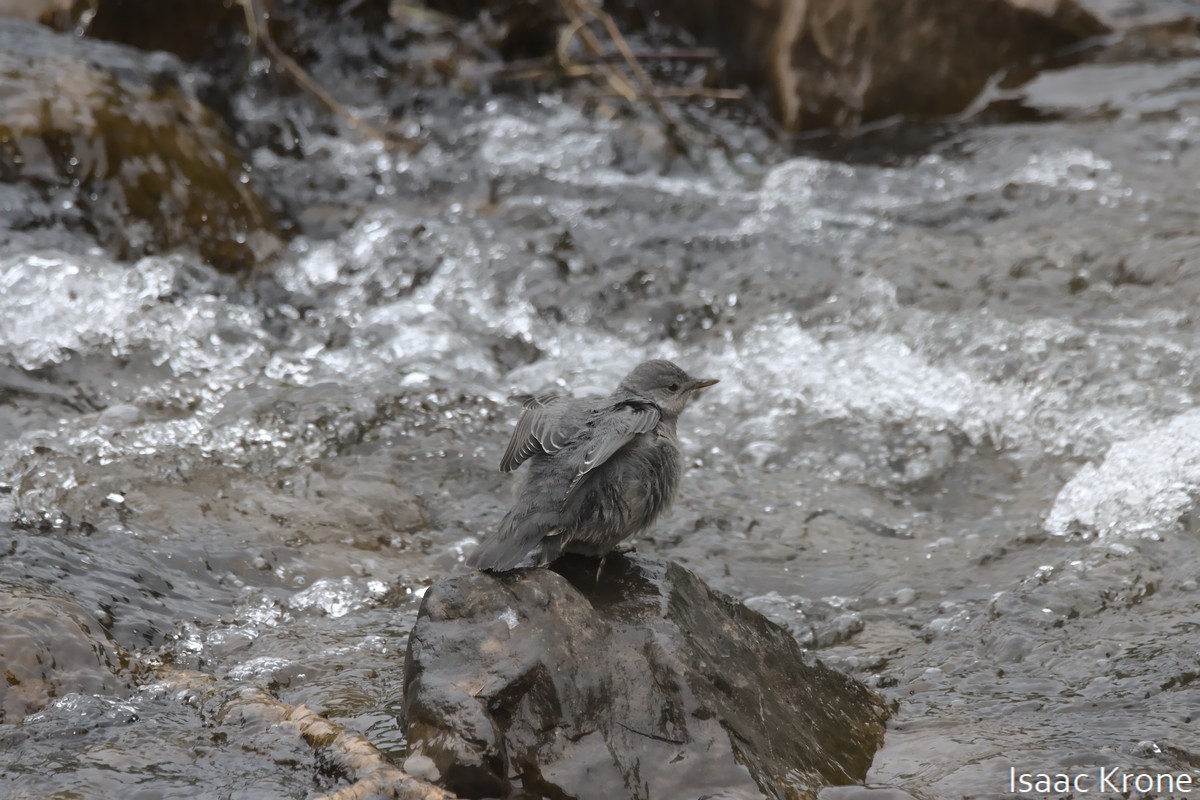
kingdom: Animalia
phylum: Chordata
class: Aves
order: Passeriformes
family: Cinclidae
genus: Cinclus
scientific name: Cinclus mexicanus
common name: American dipper
